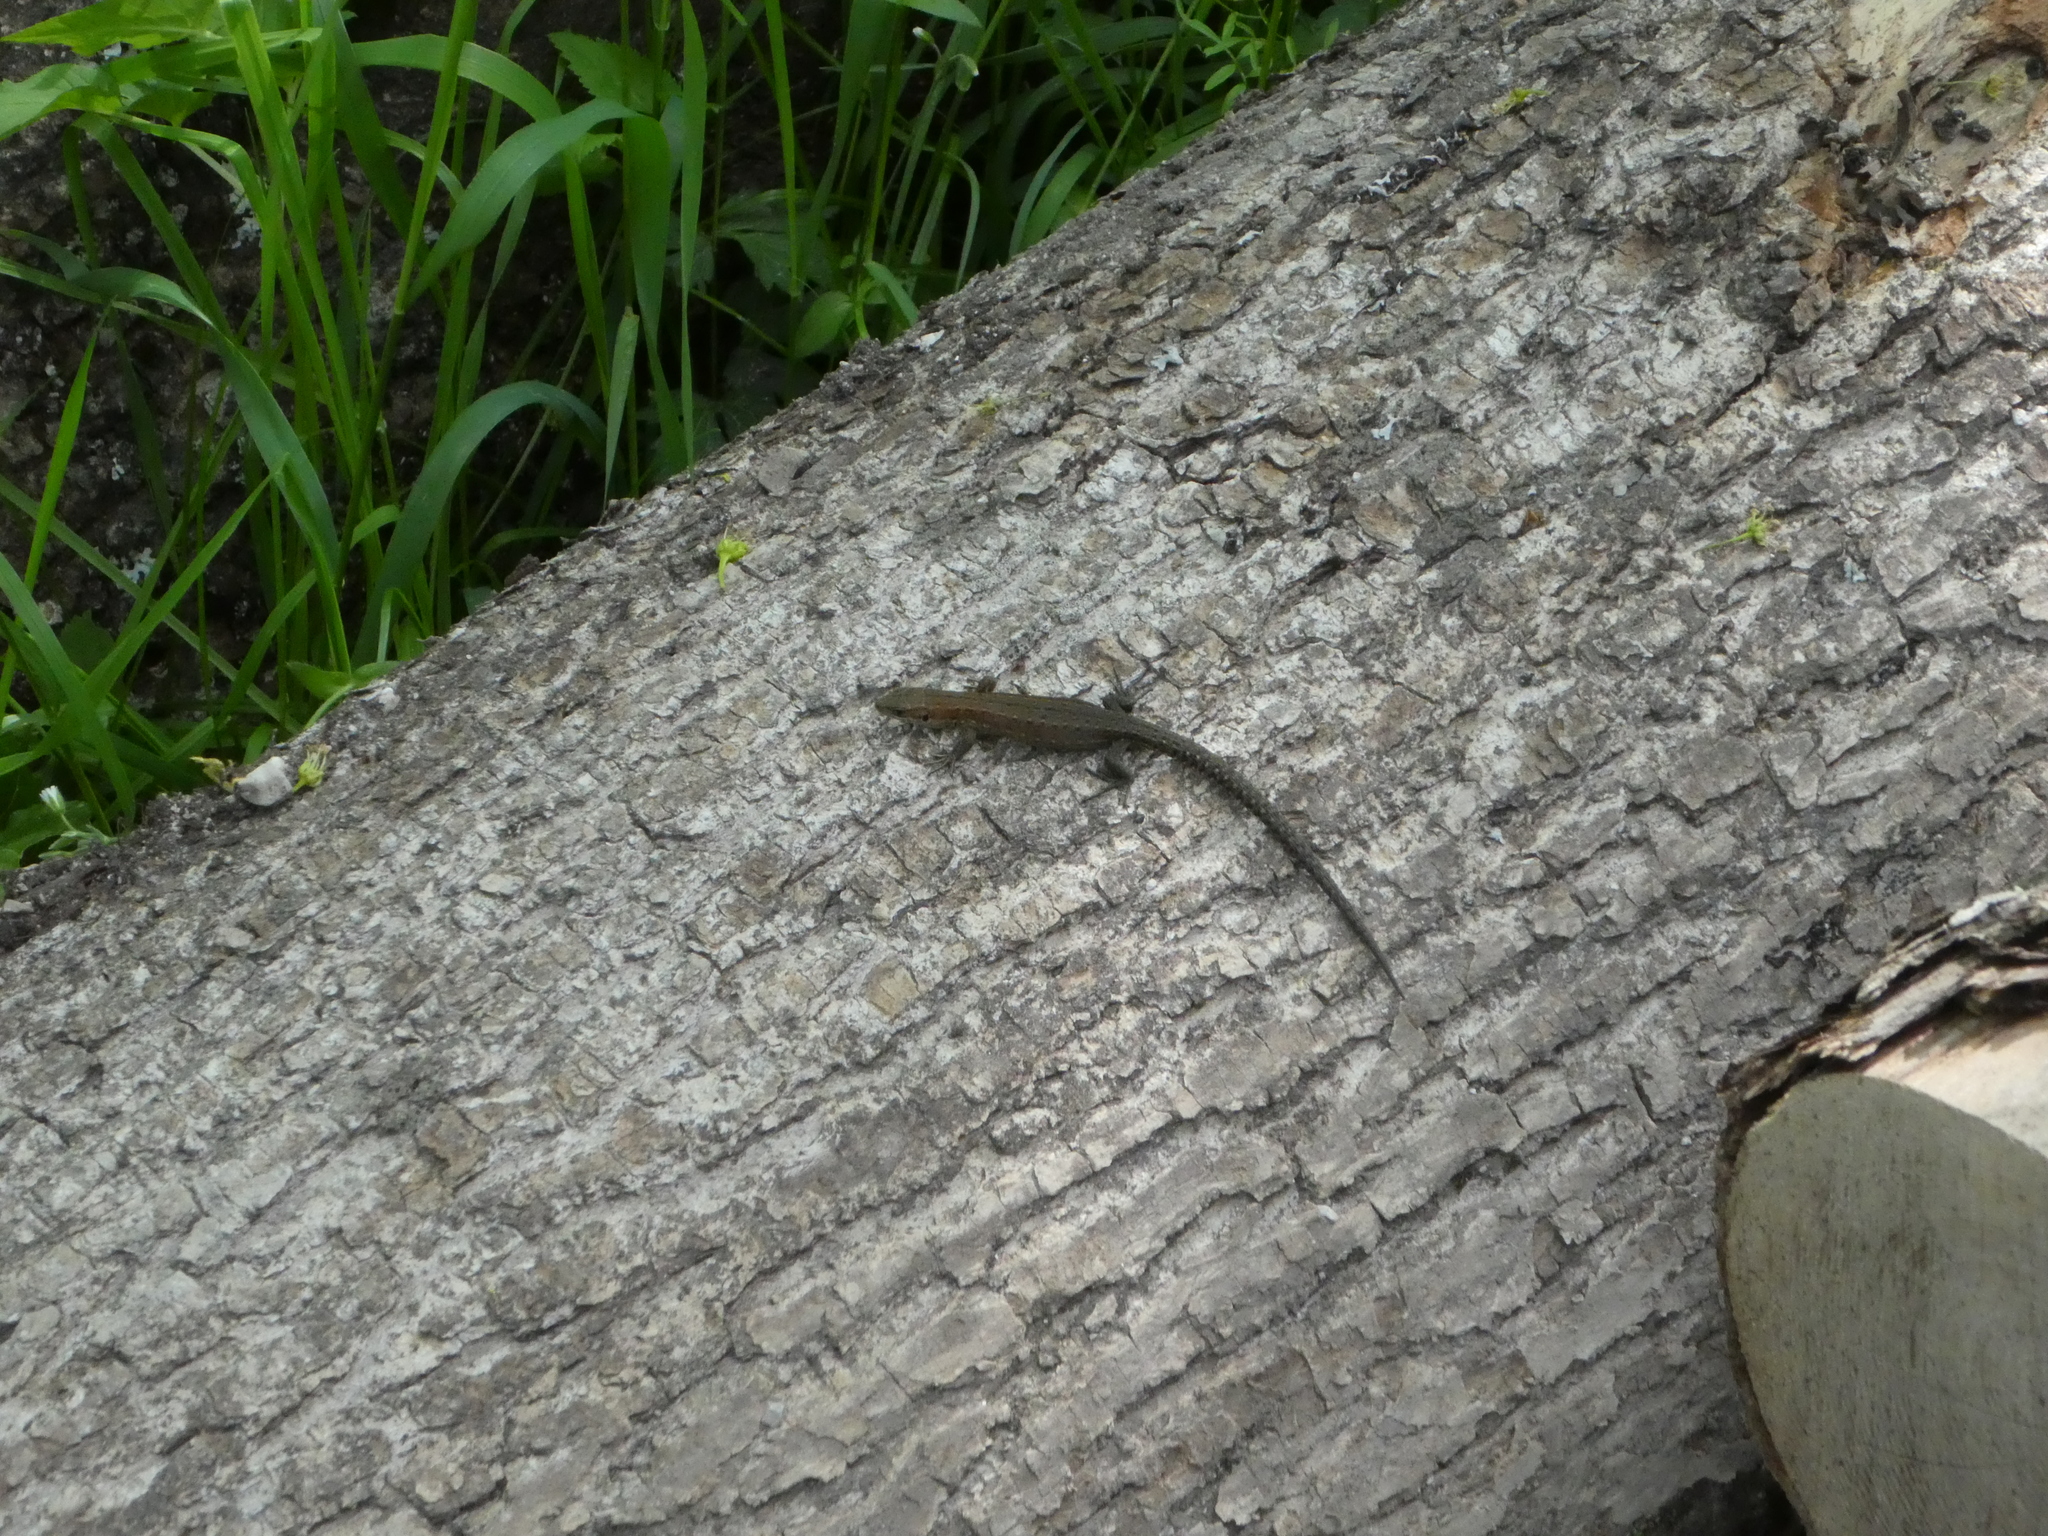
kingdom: Animalia
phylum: Chordata
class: Squamata
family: Lacertidae
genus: Zootoca
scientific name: Zootoca vivipara
